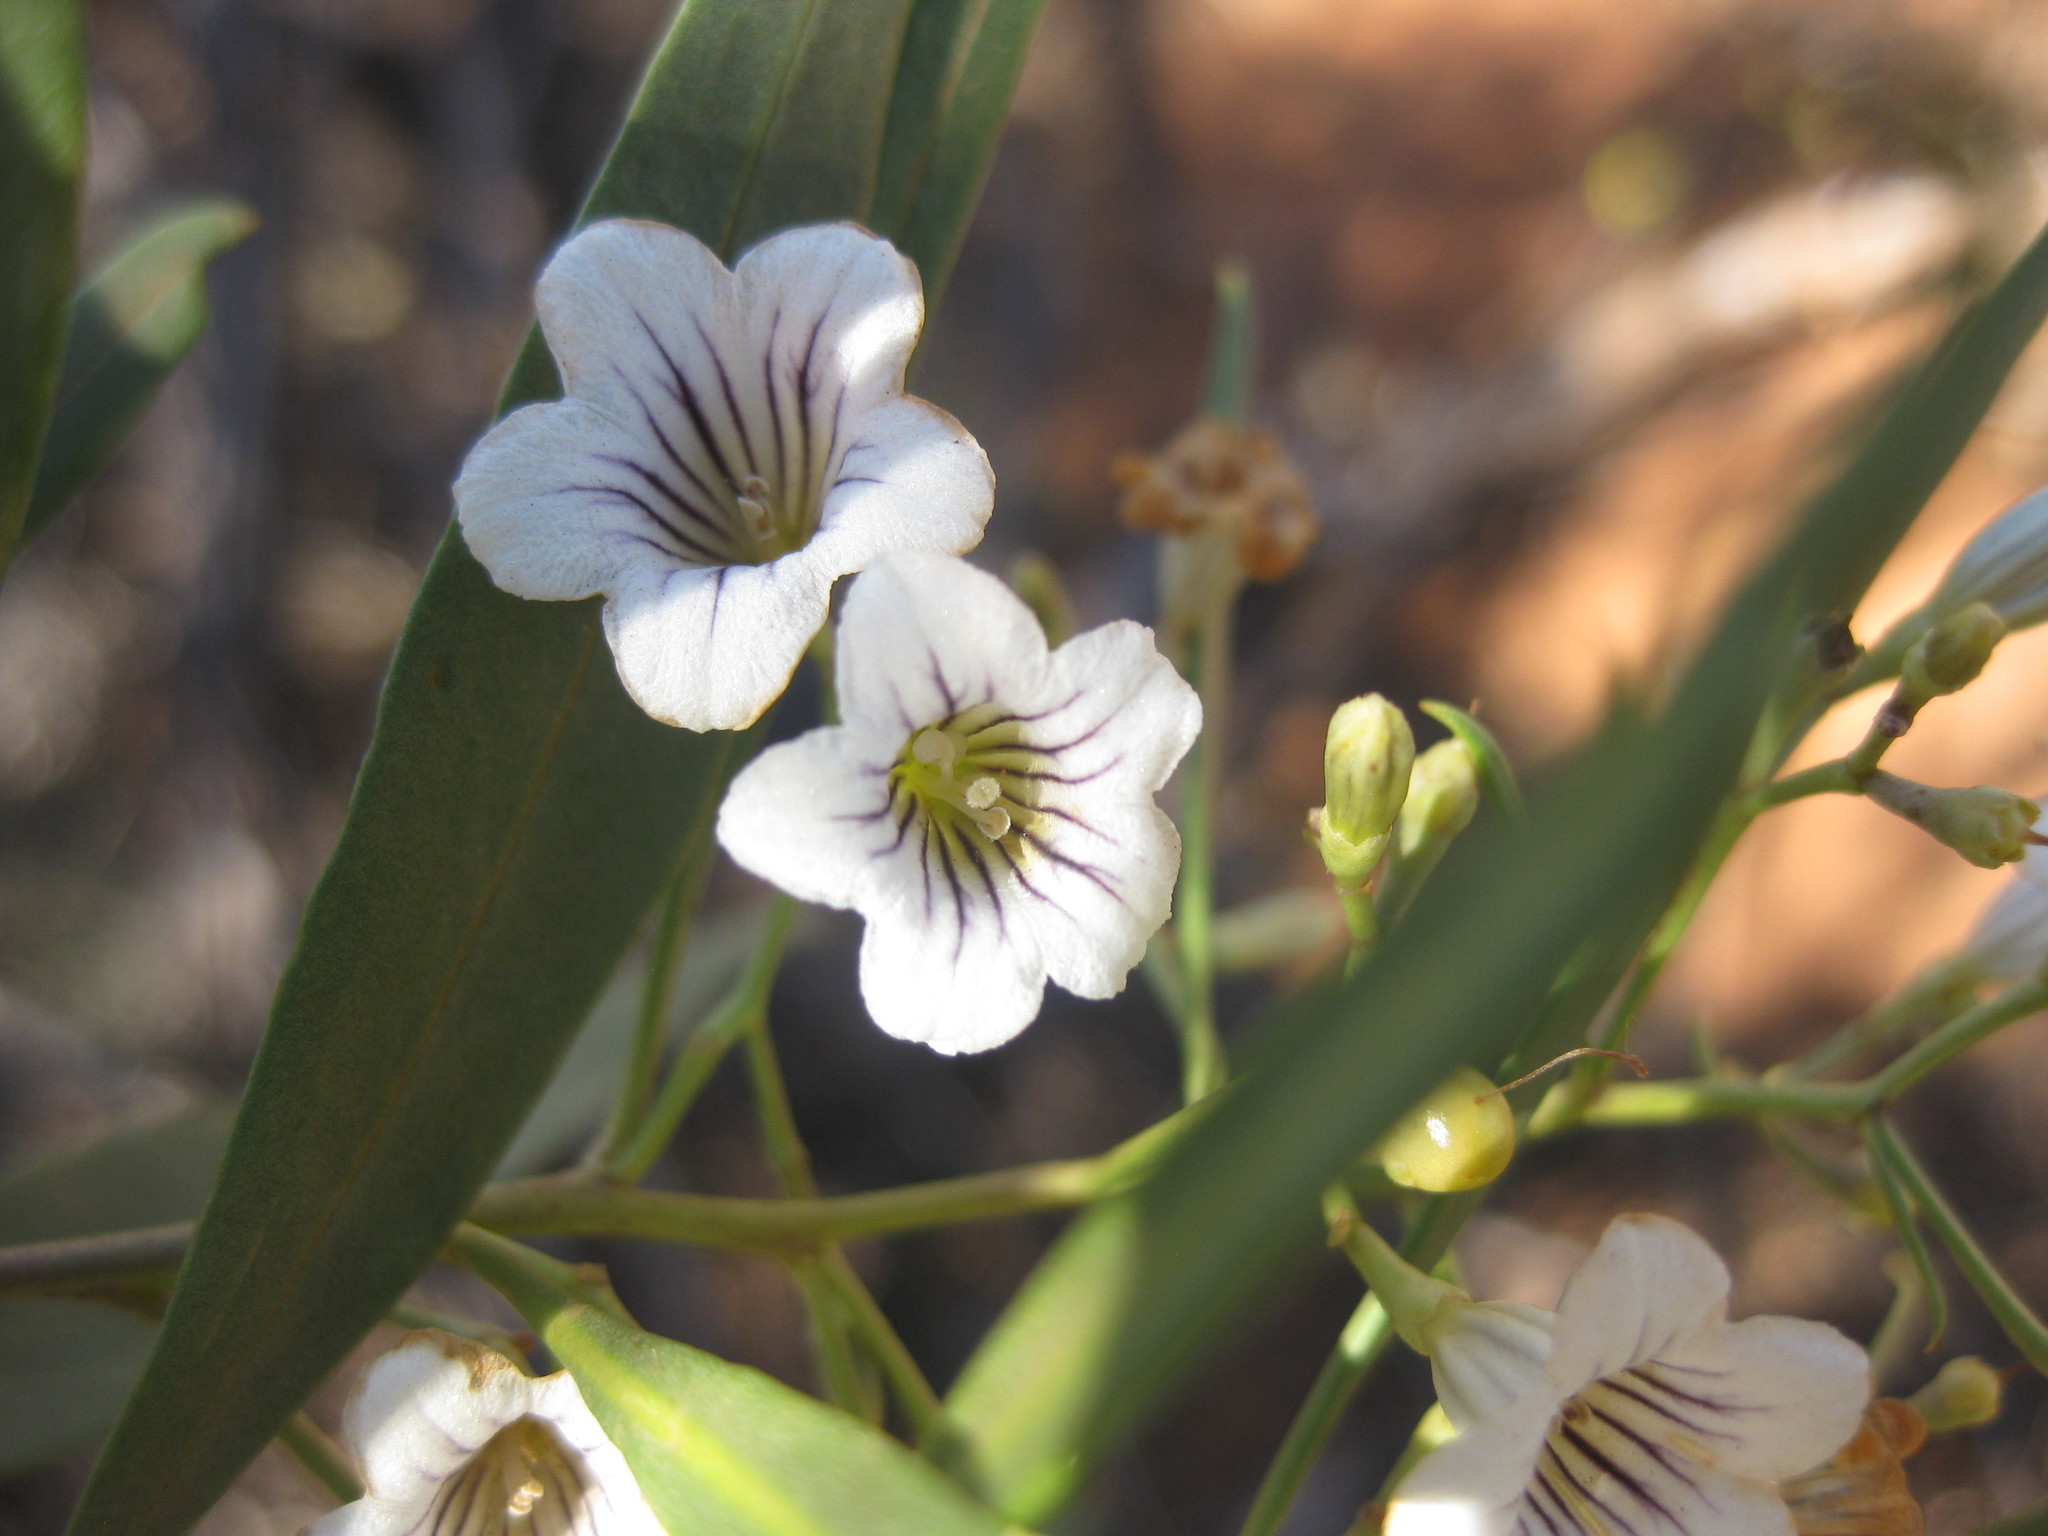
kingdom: Plantae
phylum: Tracheophyta
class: Magnoliopsida
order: Solanales
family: Solanaceae
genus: Duboisia
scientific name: Duboisia hopwoodii
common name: Pituri
